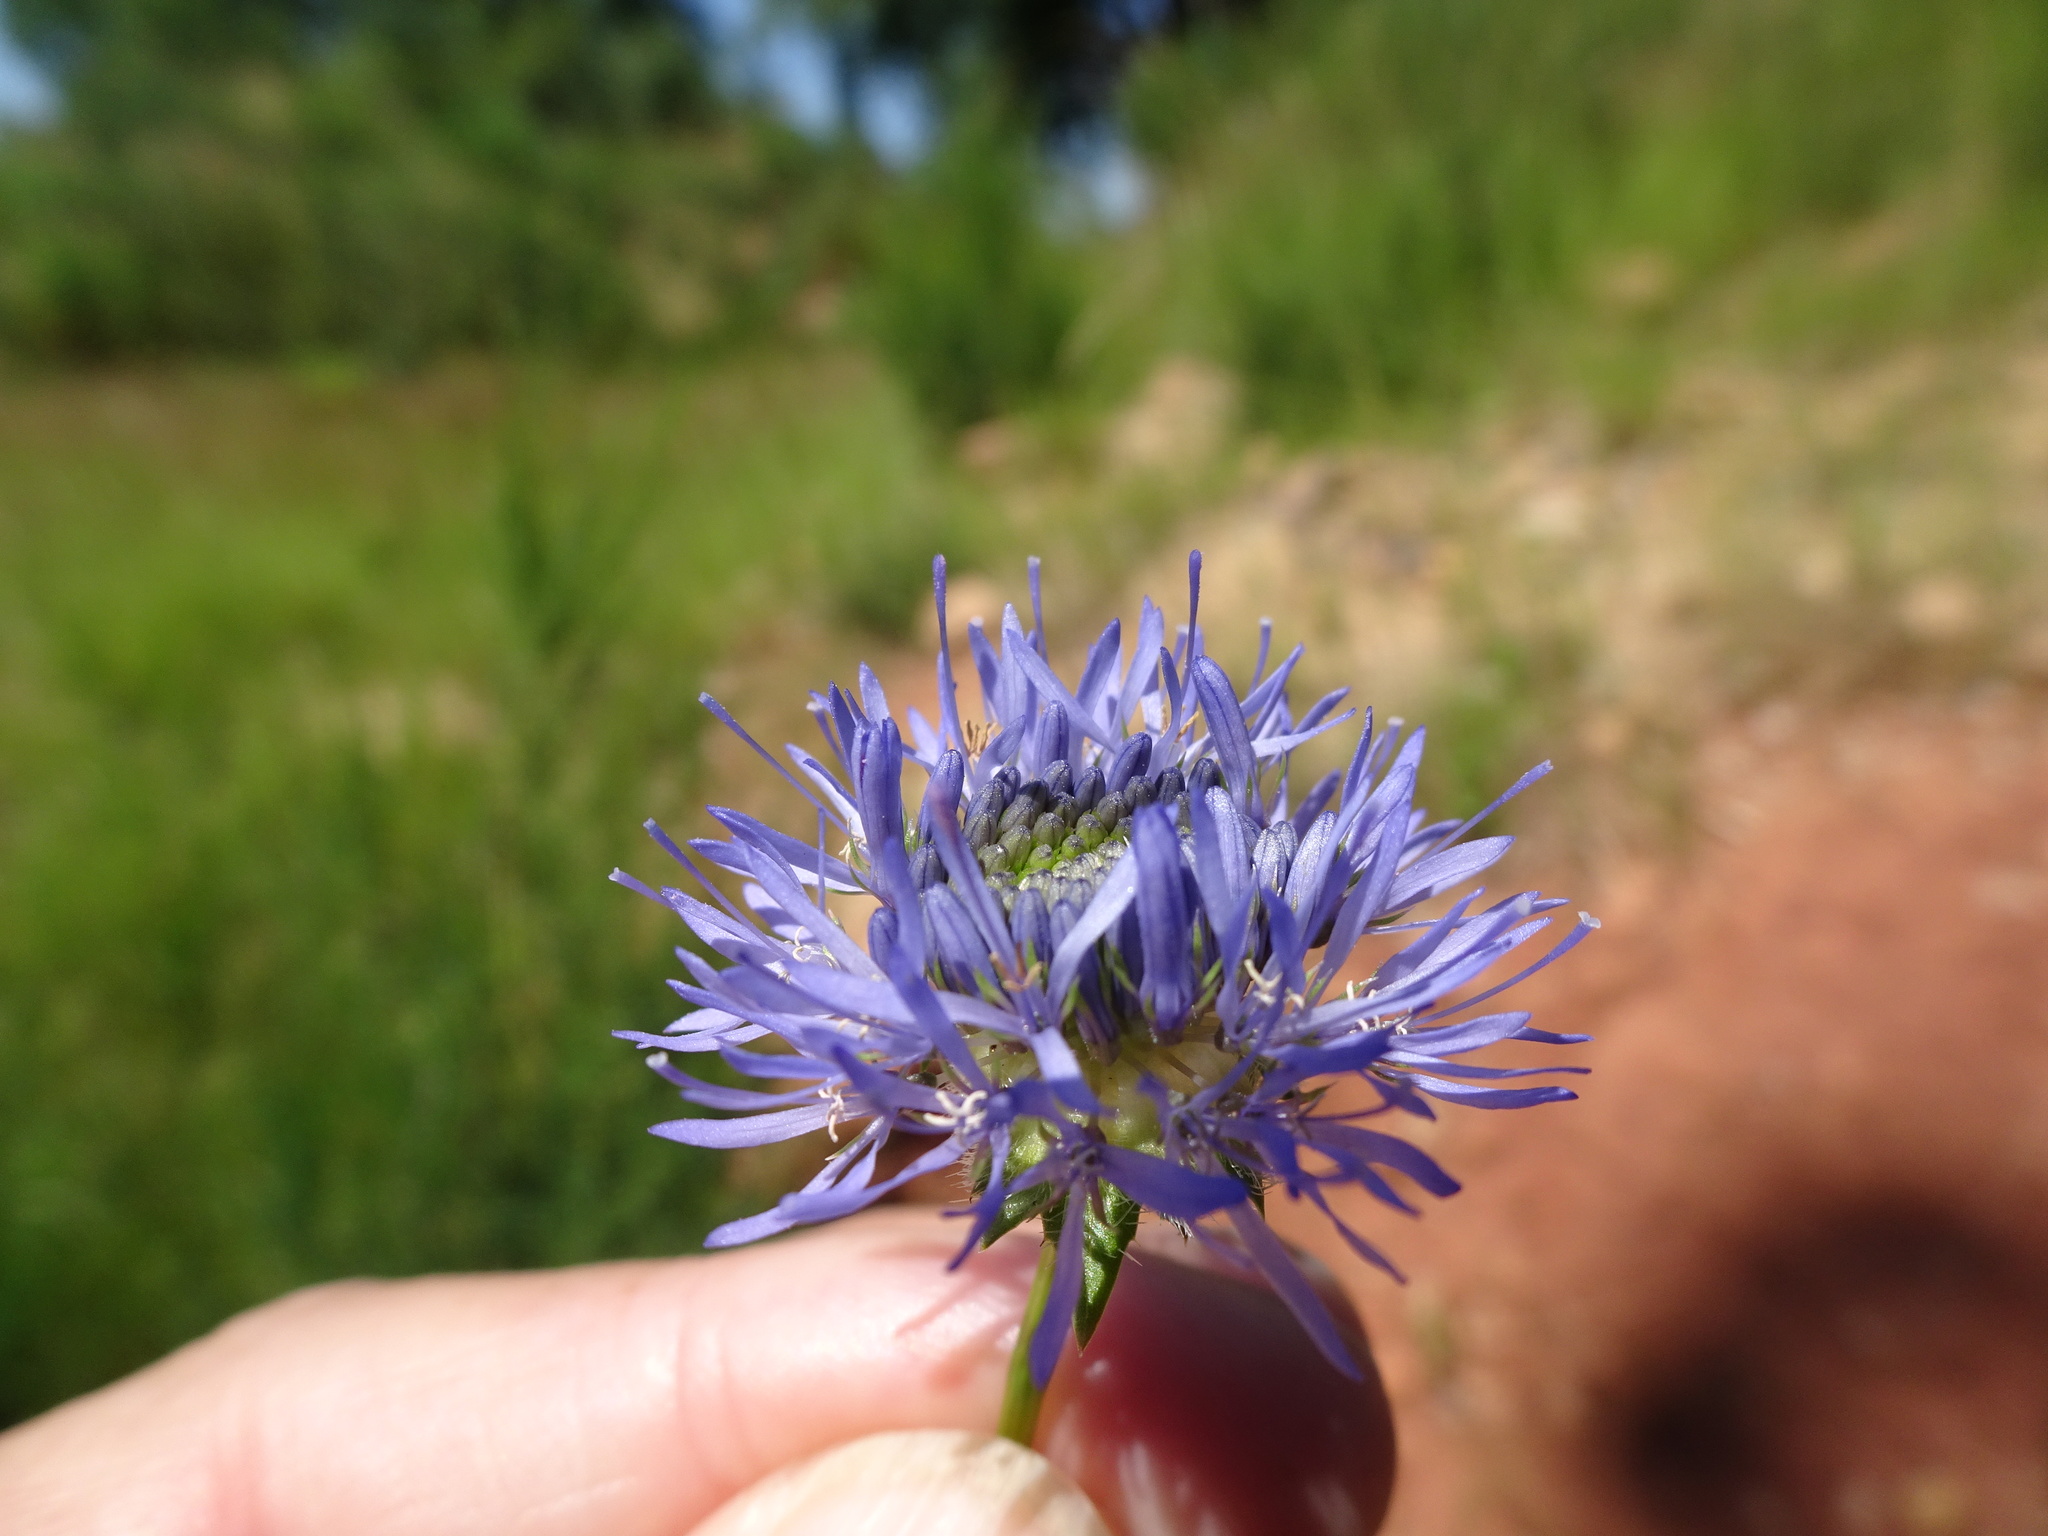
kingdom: Plantae
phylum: Tracheophyta
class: Magnoliopsida
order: Asterales
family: Campanulaceae
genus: Jasione
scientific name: Jasione montana
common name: Sheep's-bit
